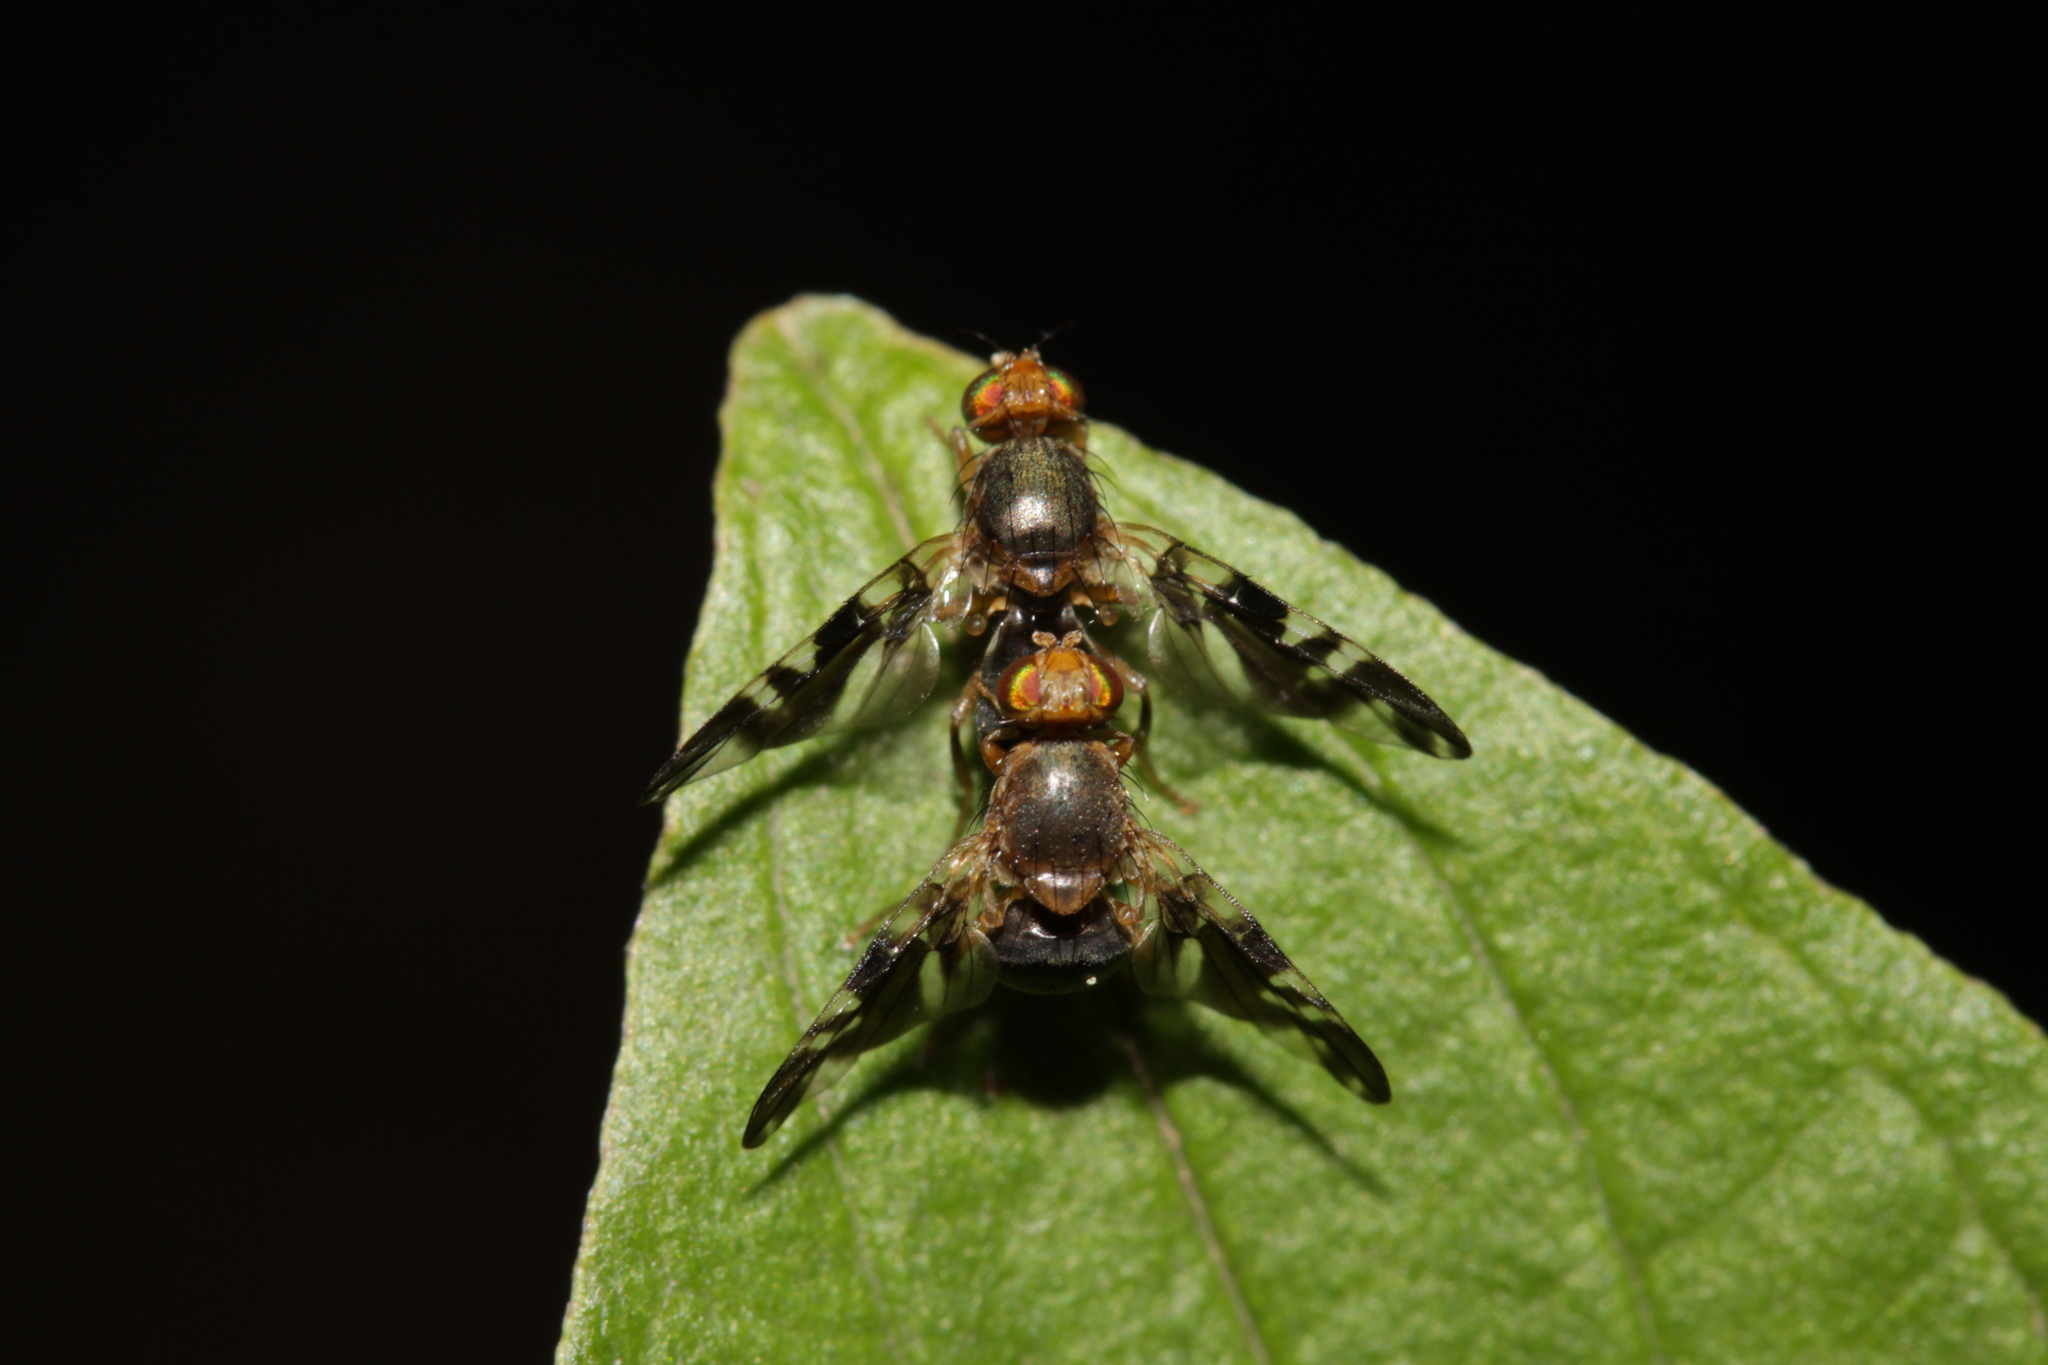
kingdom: Animalia
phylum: Arthropoda
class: Insecta
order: Diptera
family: Tephritidae
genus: Philophylla
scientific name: Philophylla caesio
